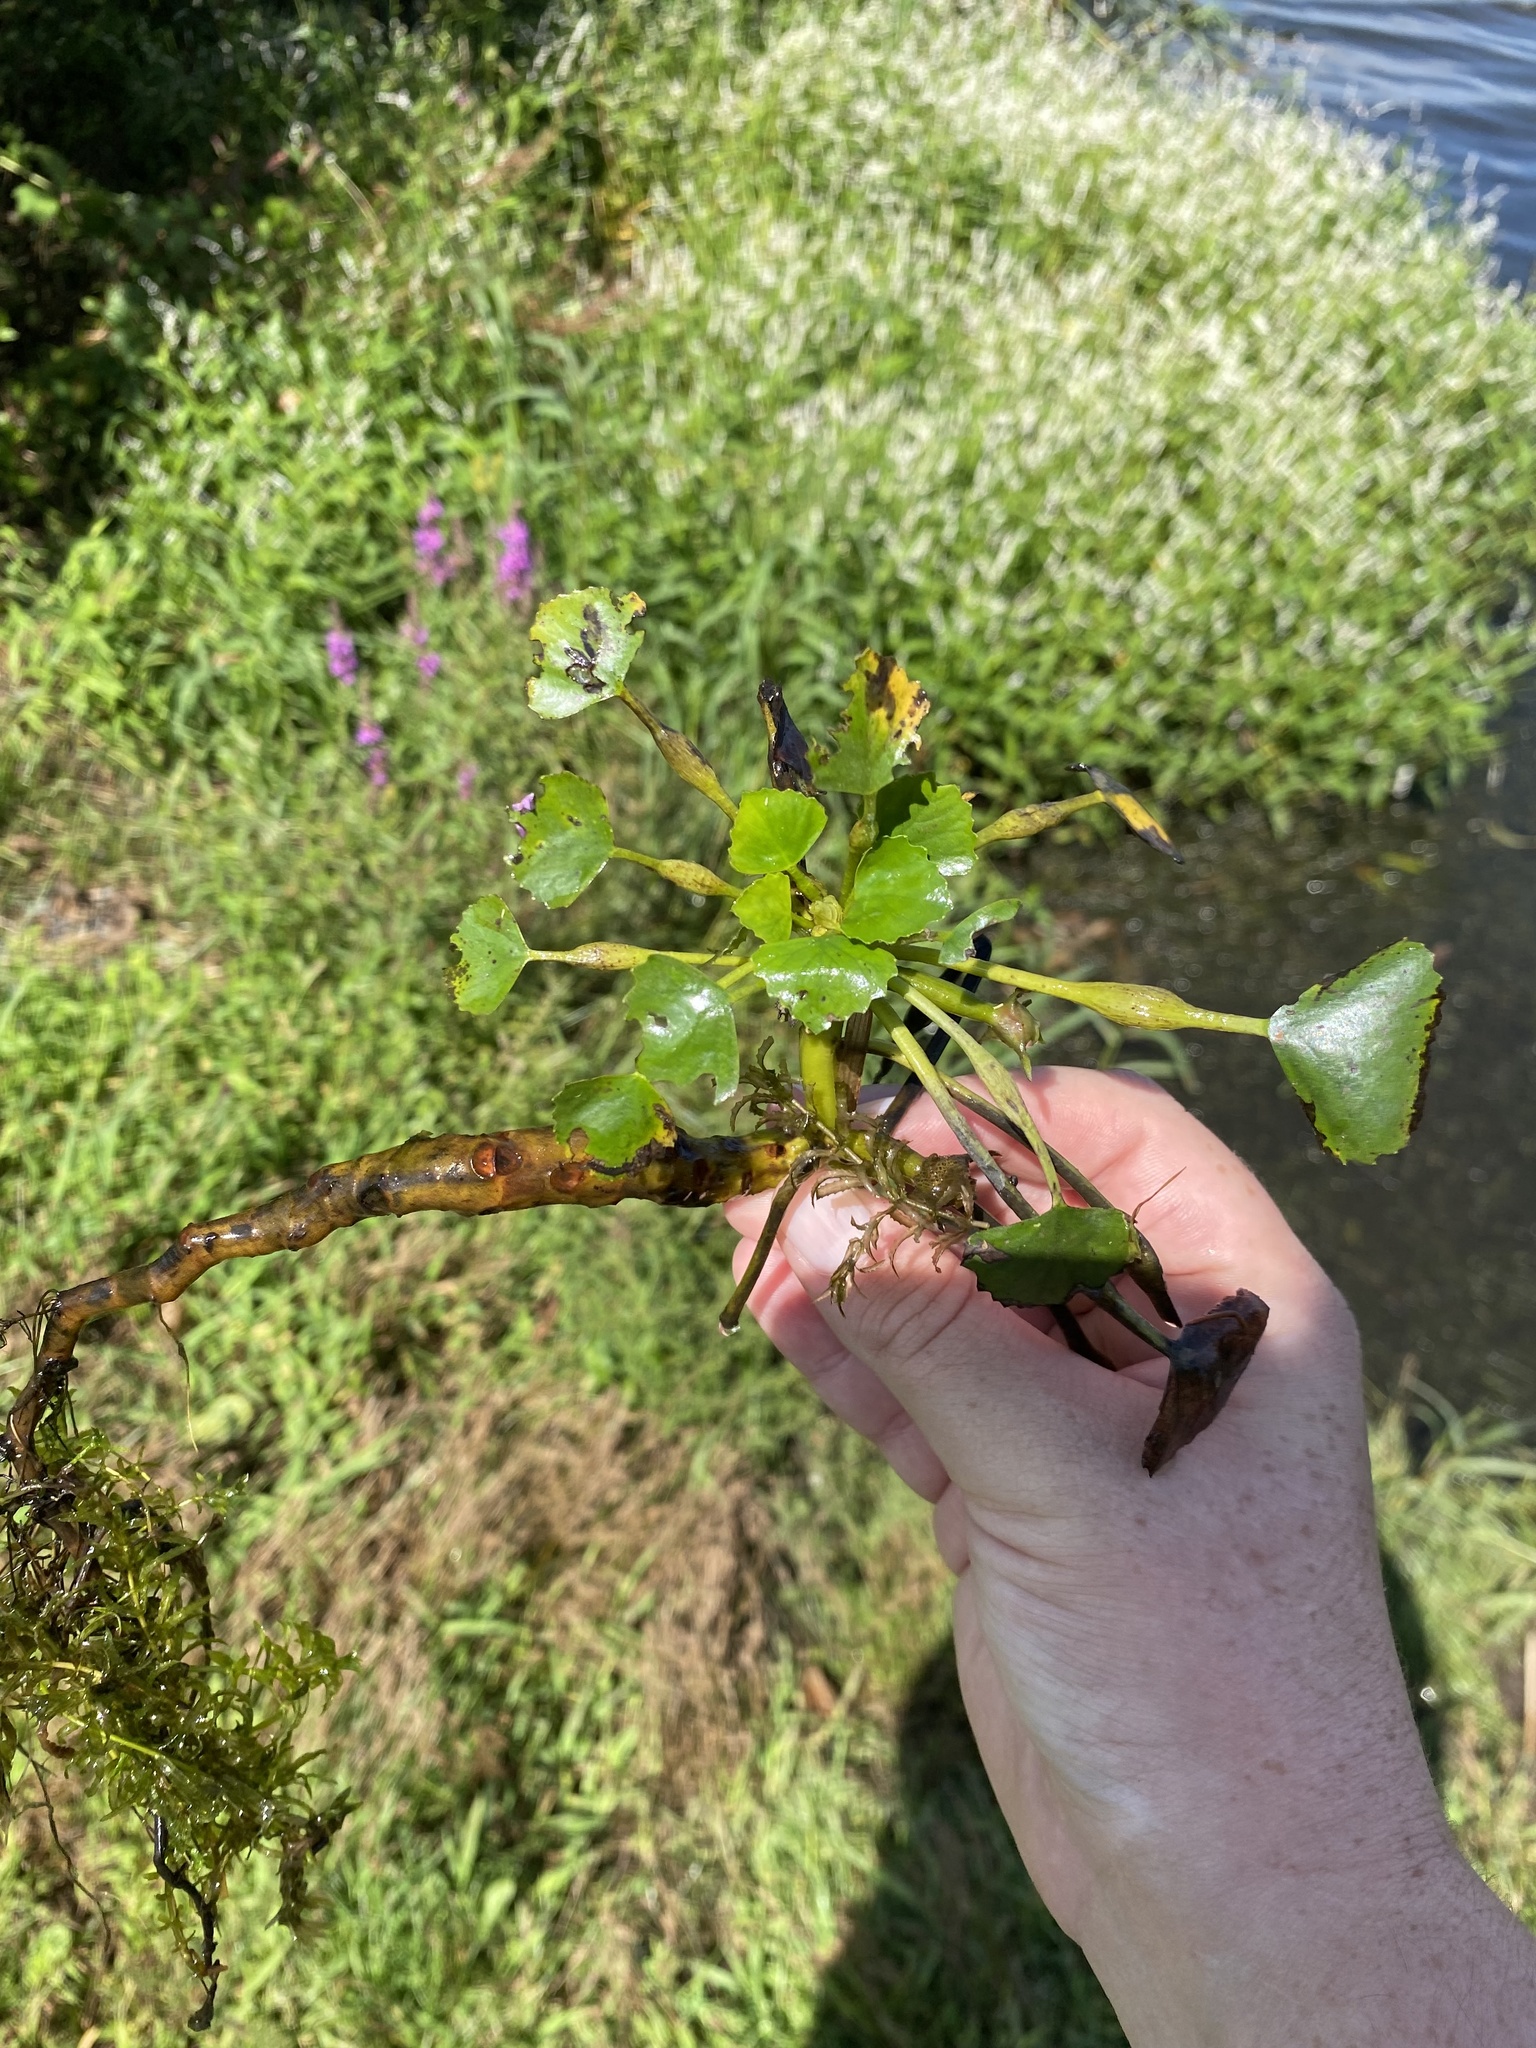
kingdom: Plantae
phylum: Tracheophyta
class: Magnoliopsida
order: Myrtales
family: Lythraceae
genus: Trapa
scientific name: Trapa natans
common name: Water chestnut
